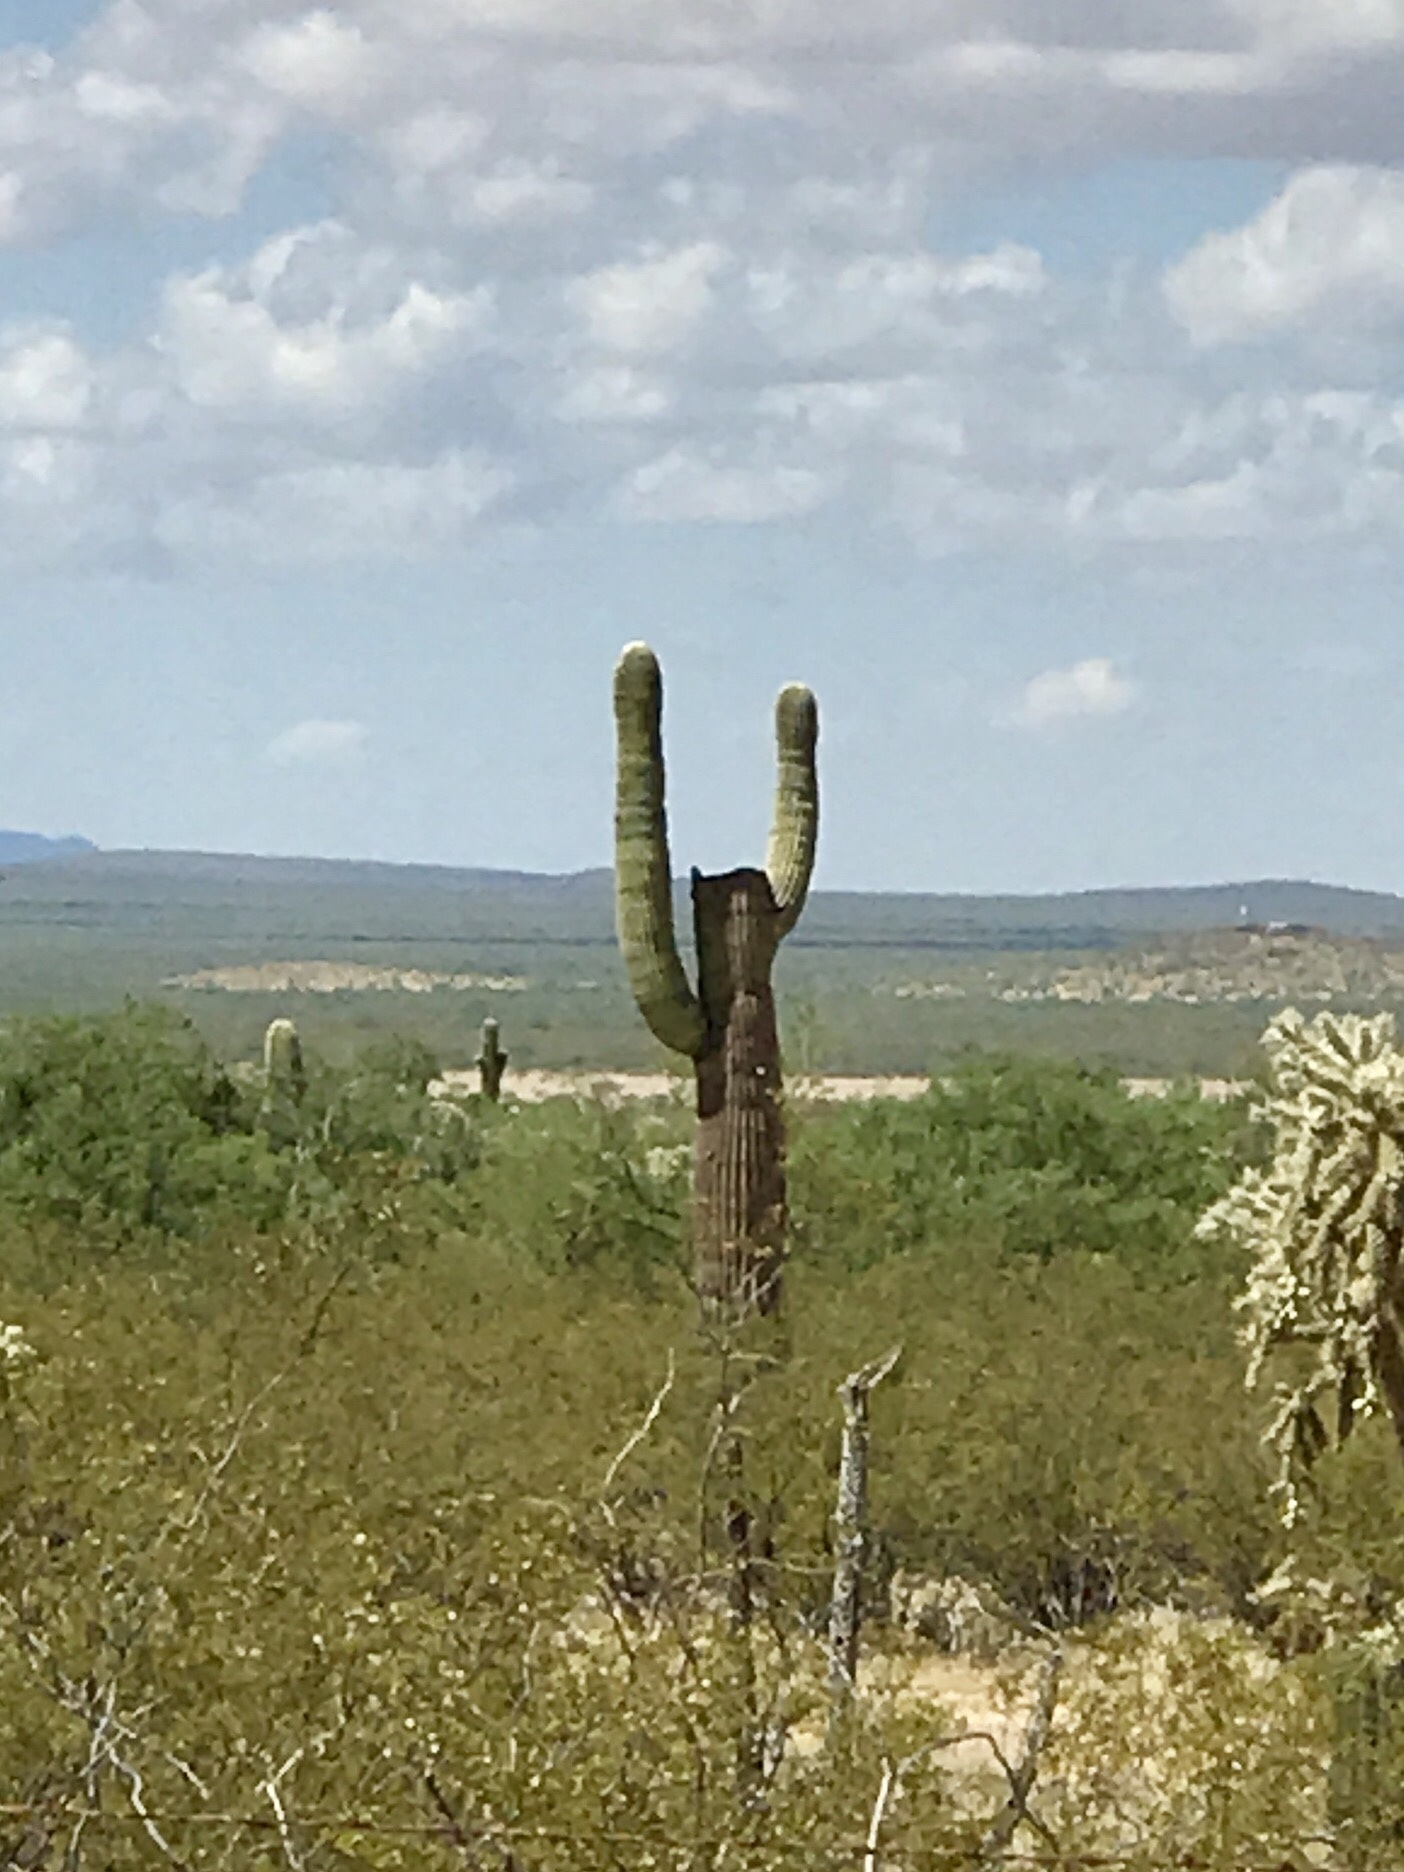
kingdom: Plantae
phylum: Tracheophyta
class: Magnoliopsida
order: Caryophyllales
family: Cactaceae
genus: Carnegiea
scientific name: Carnegiea gigantea
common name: Saguaro
